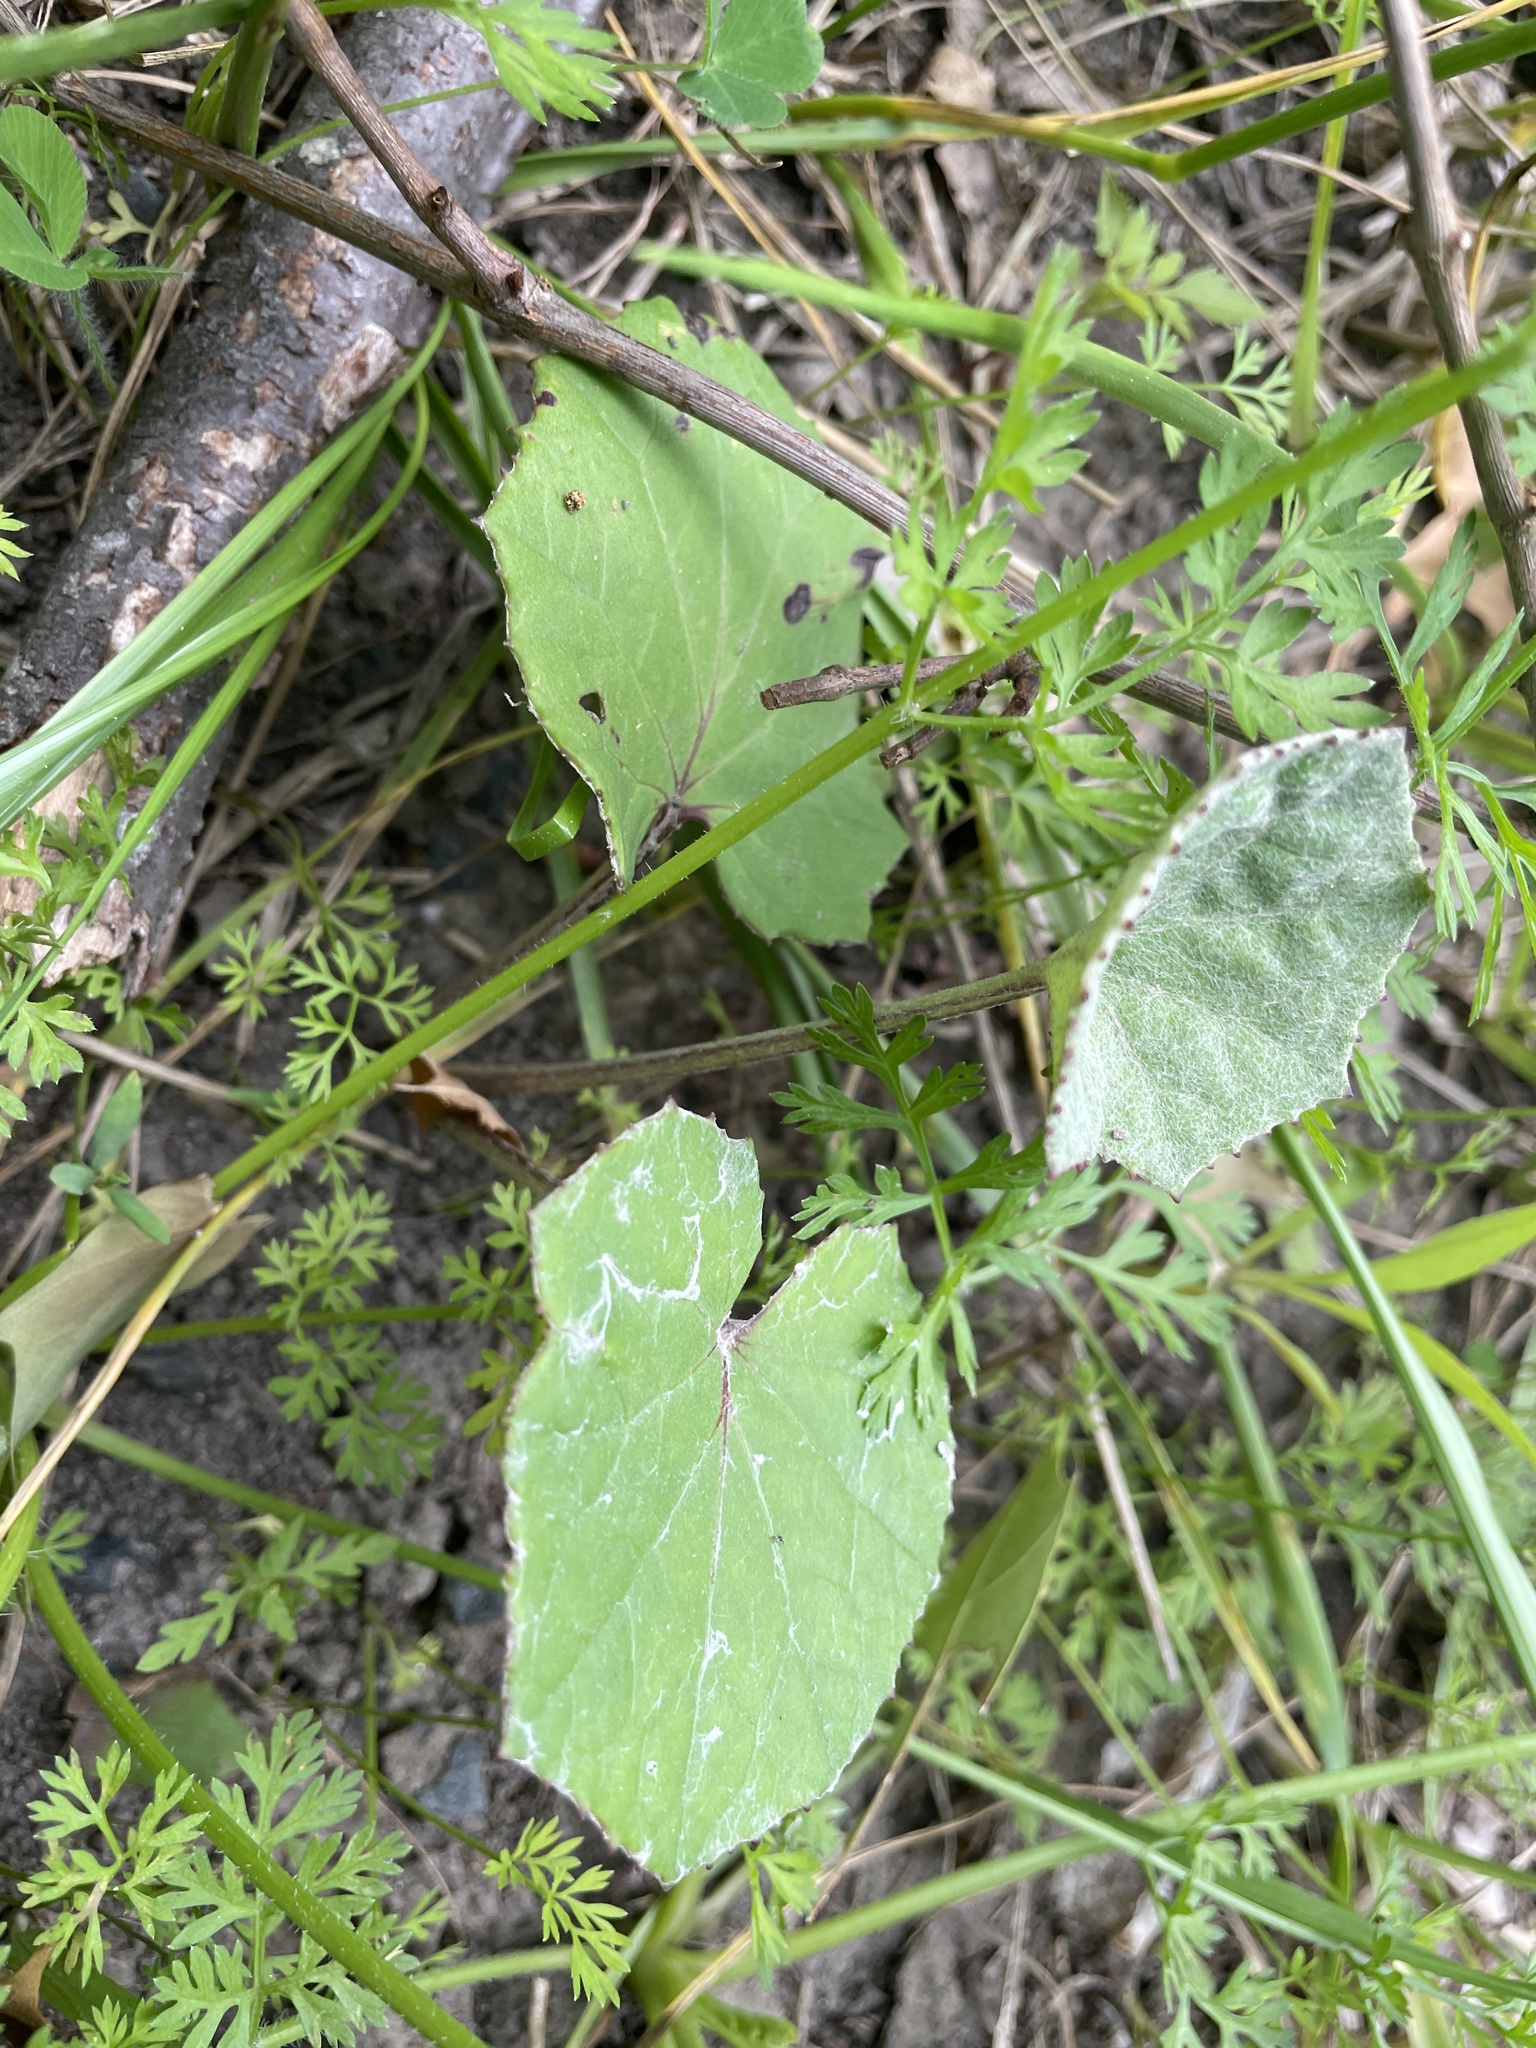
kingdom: Plantae
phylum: Tracheophyta
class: Magnoliopsida
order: Asterales
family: Asteraceae
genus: Tussilago
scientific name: Tussilago farfara
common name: Coltsfoot
